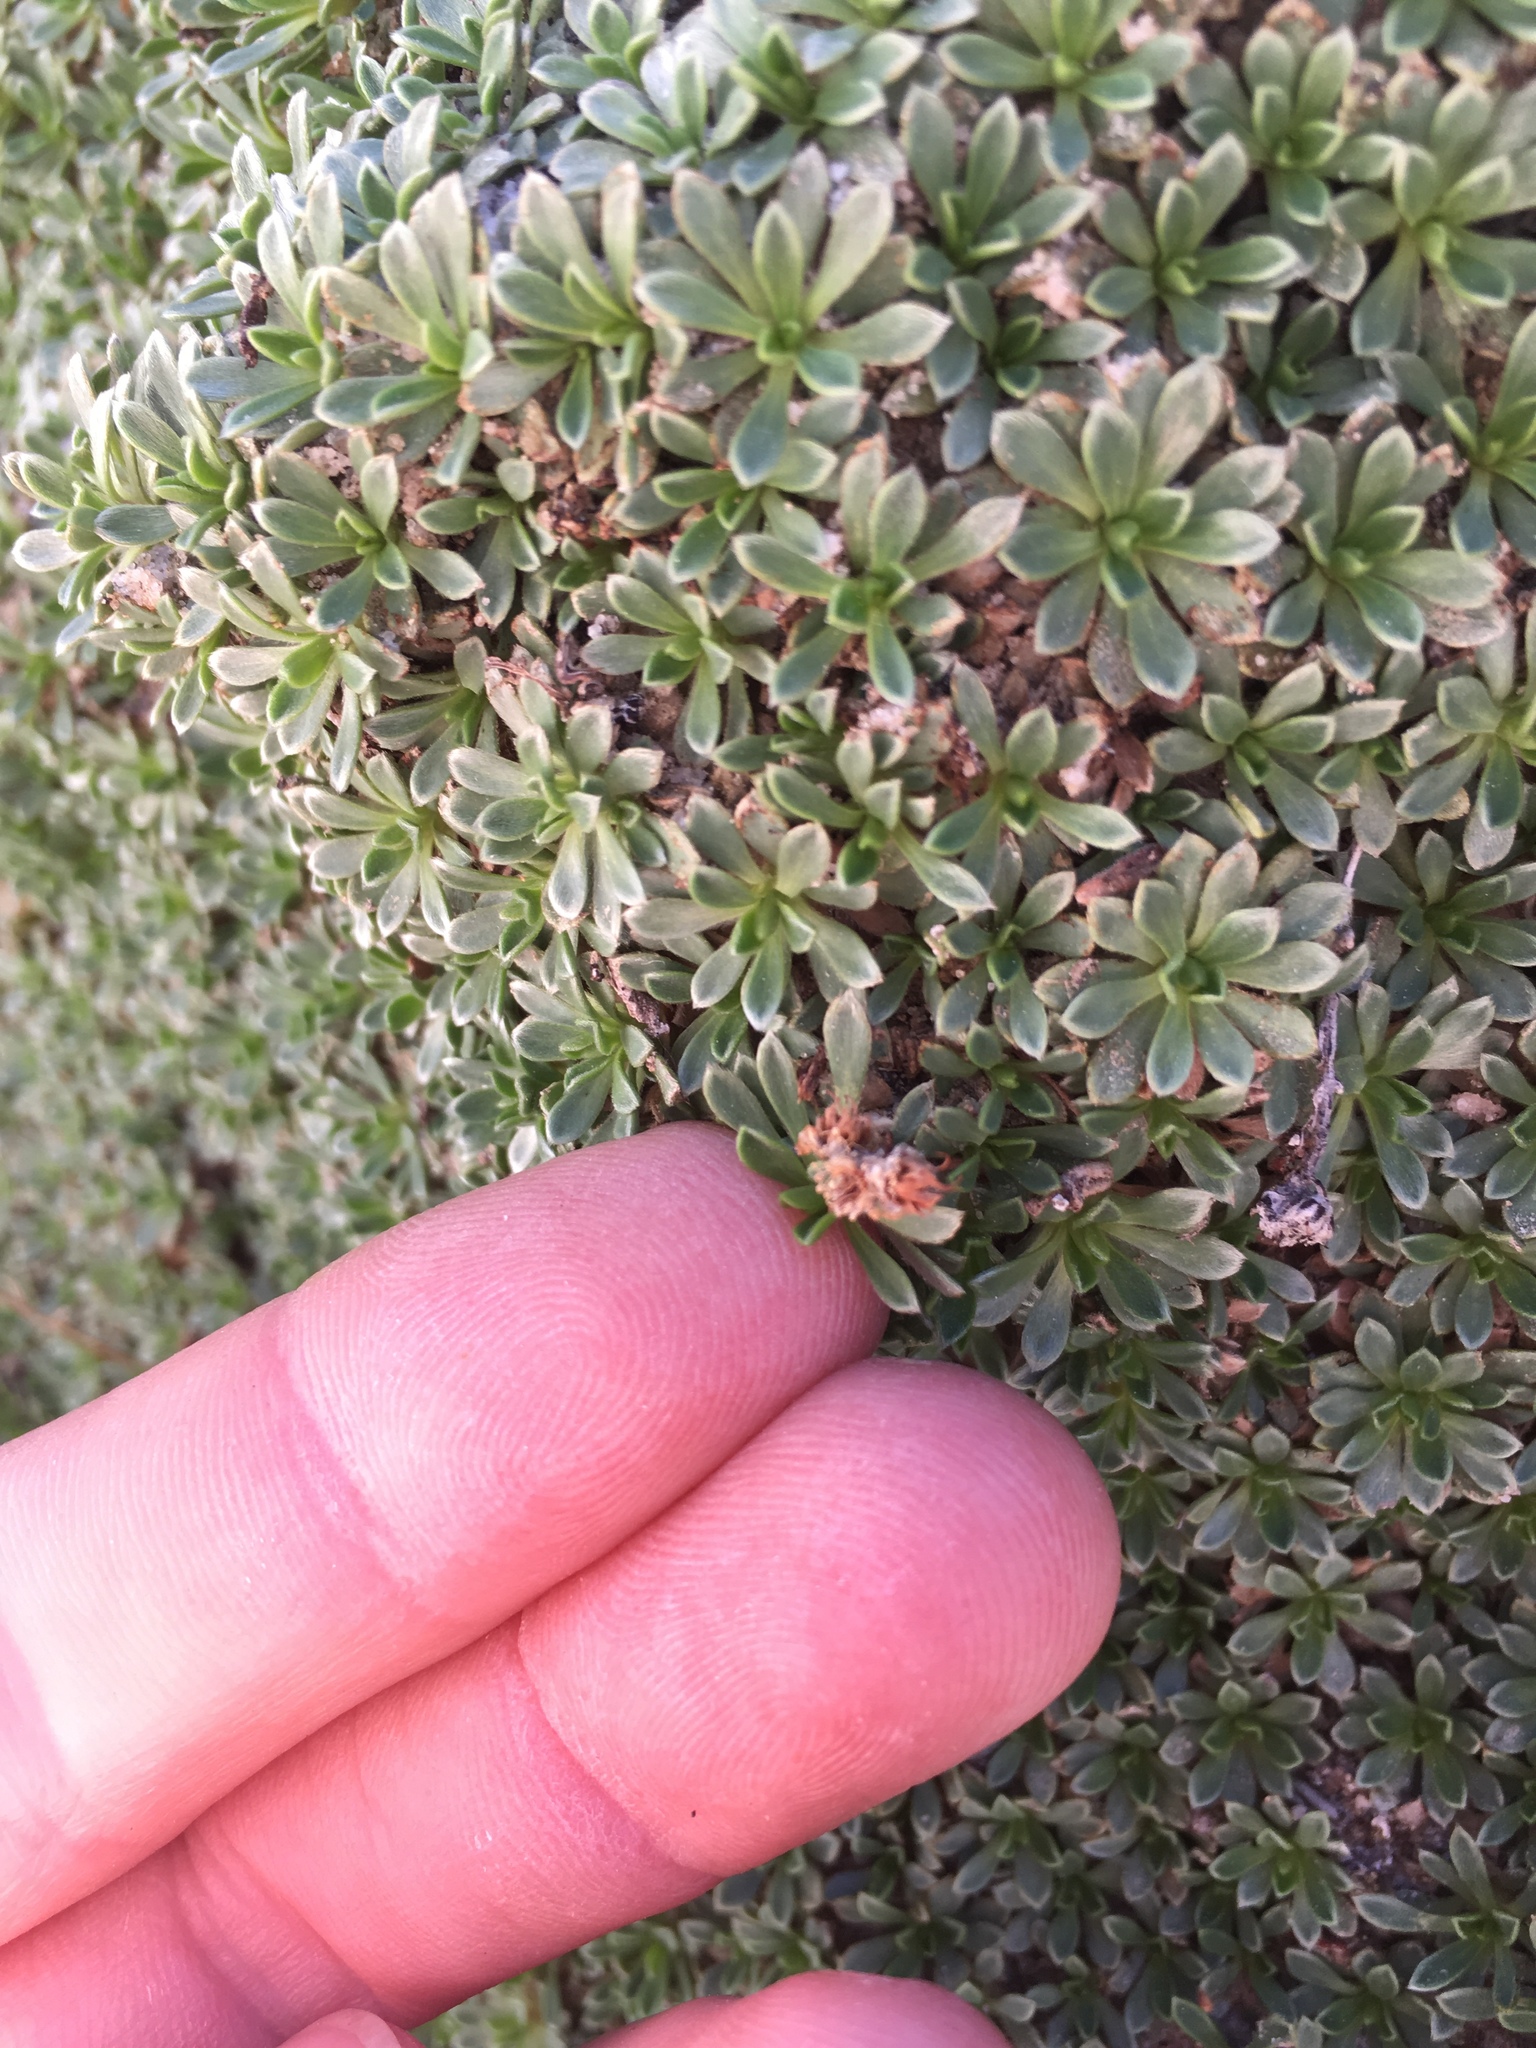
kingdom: Plantae
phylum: Tracheophyta
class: Magnoliopsida
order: Rosales
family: Rosaceae
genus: Petrophytum
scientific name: Petrophytum caespitosum
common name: Mat rockspirea
